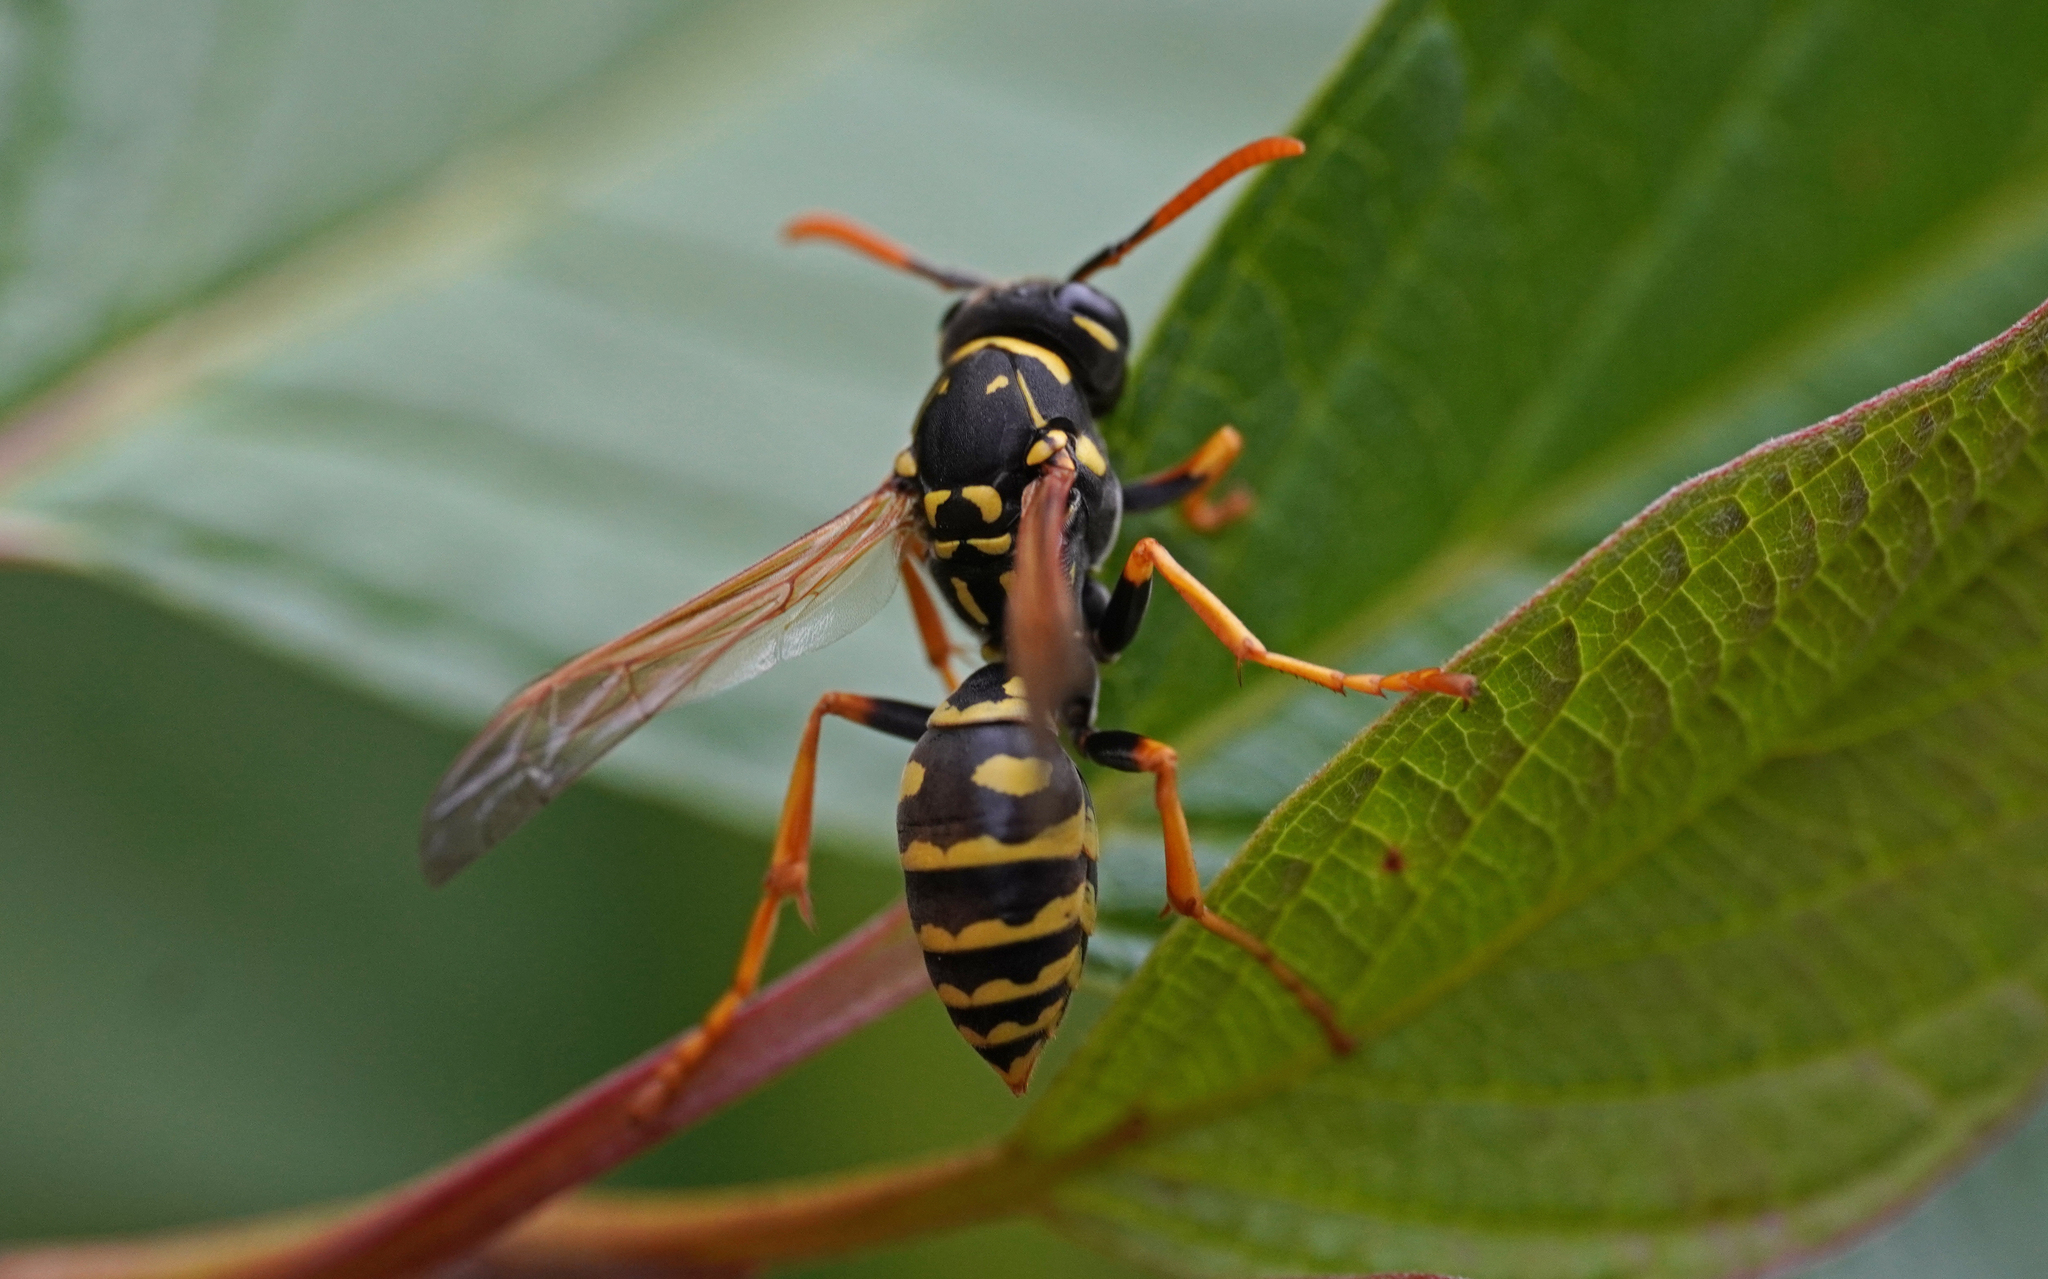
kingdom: Animalia
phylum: Arthropoda
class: Insecta
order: Hymenoptera
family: Eumenidae
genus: Polistes
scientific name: Polistes dominula
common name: Paper wasp
